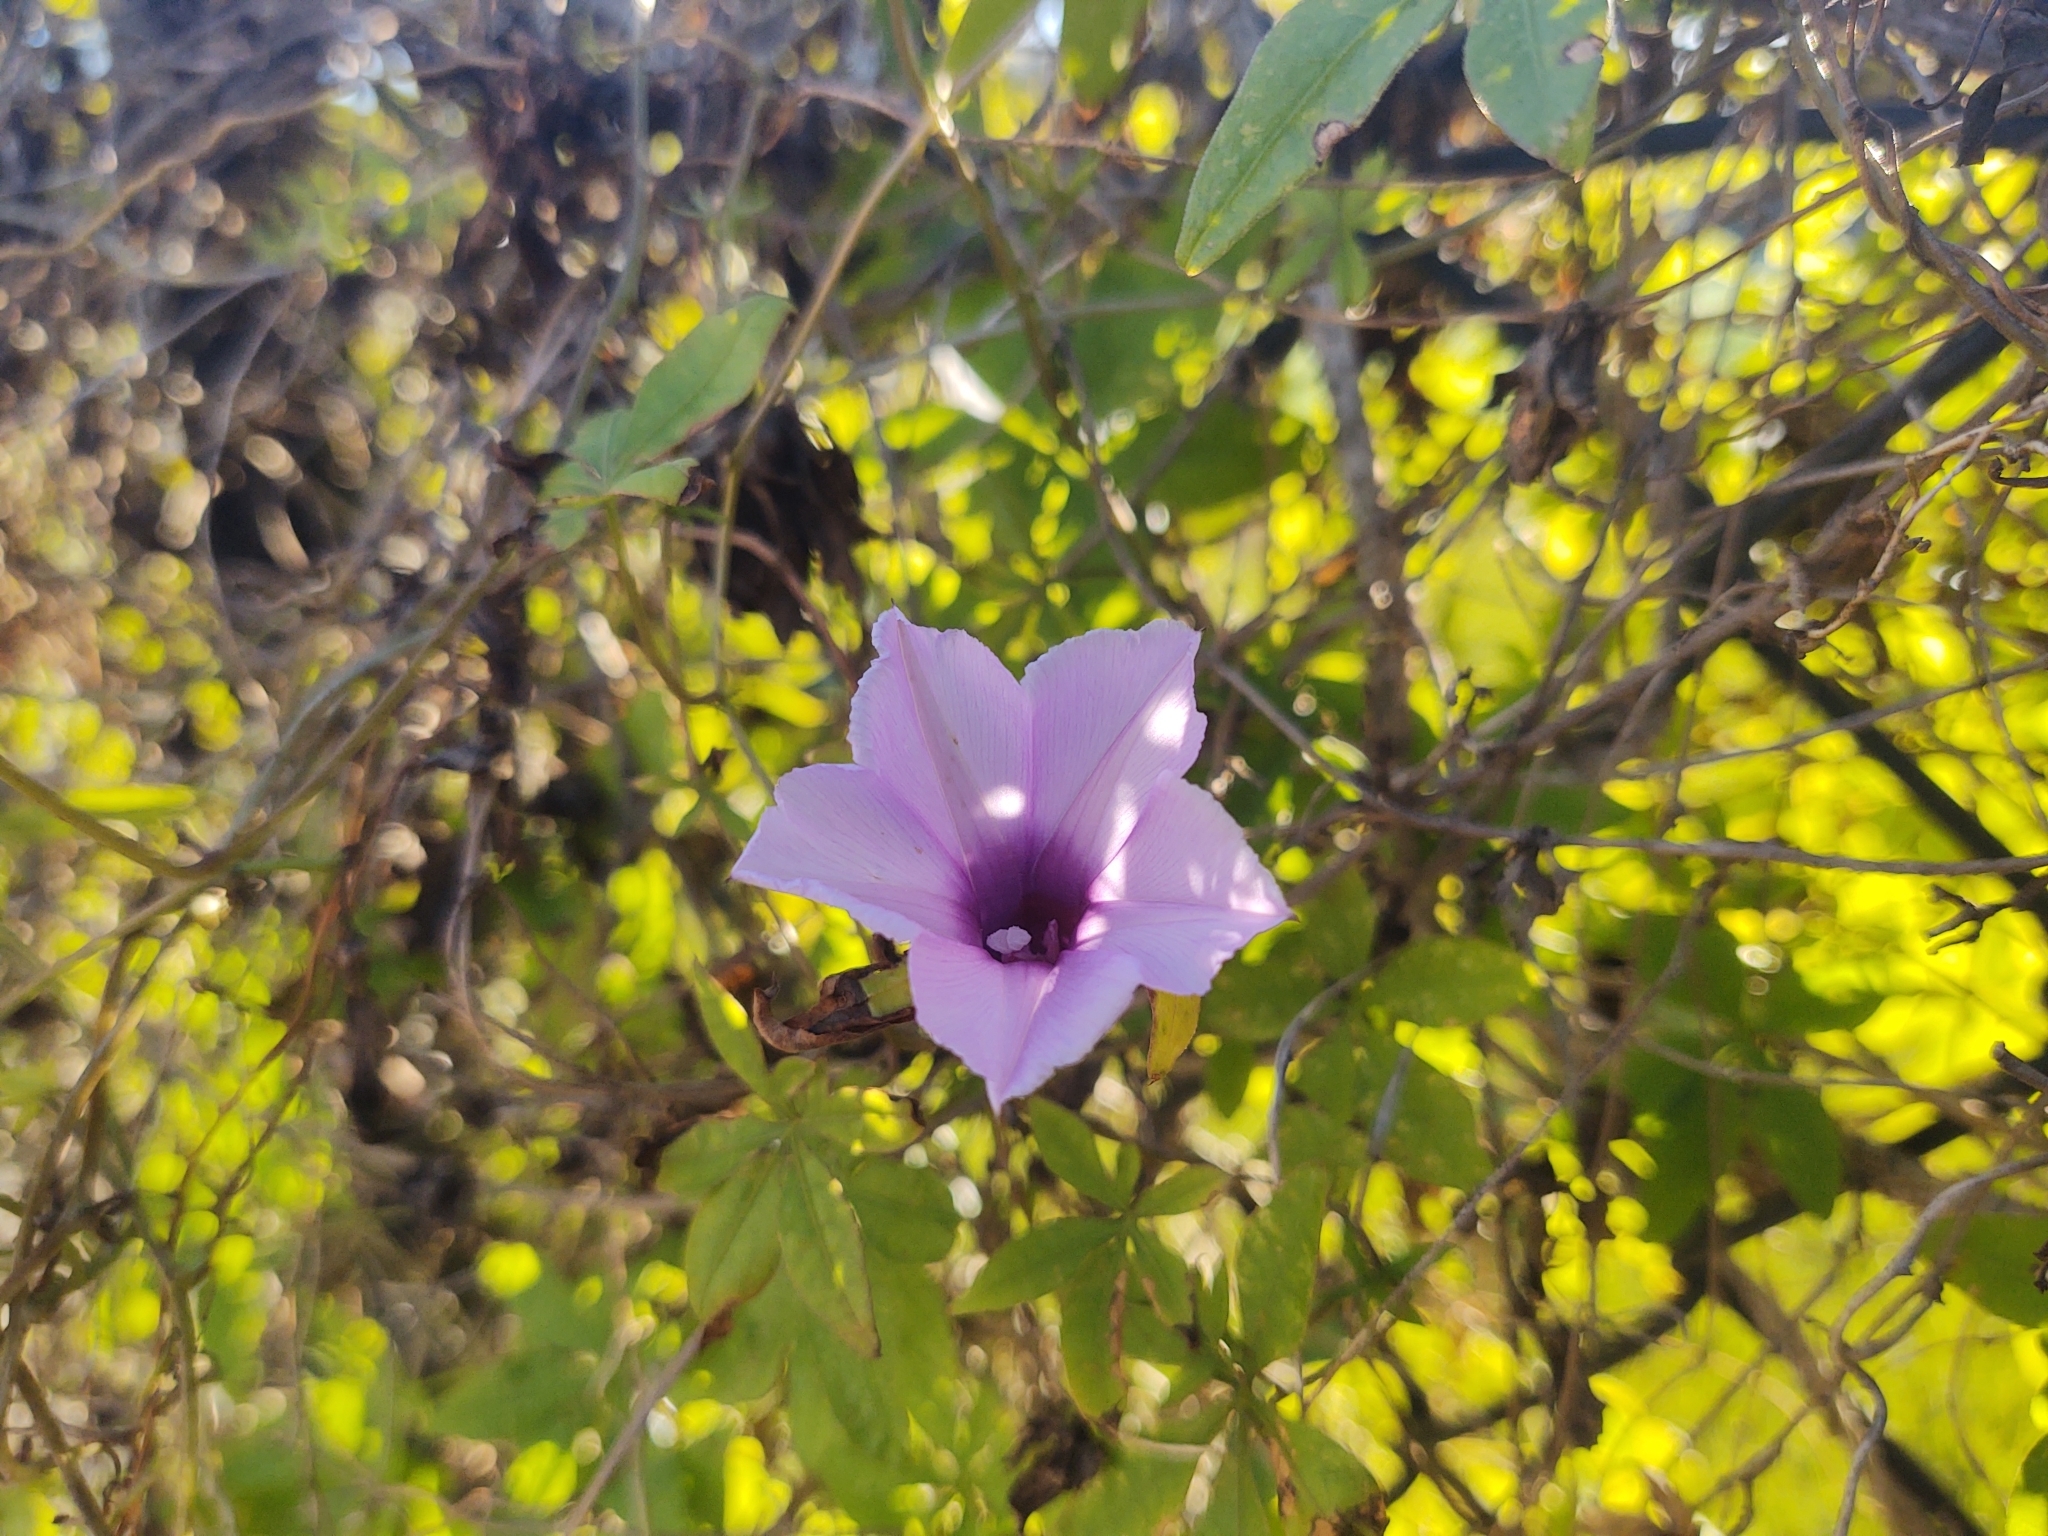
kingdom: Plantae
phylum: Tracheophyta
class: Magnoliopsida
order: Solanales
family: Convolvulaceae
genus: Ipomoea
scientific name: Ipomoea cairica
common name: Mile a minute vine
